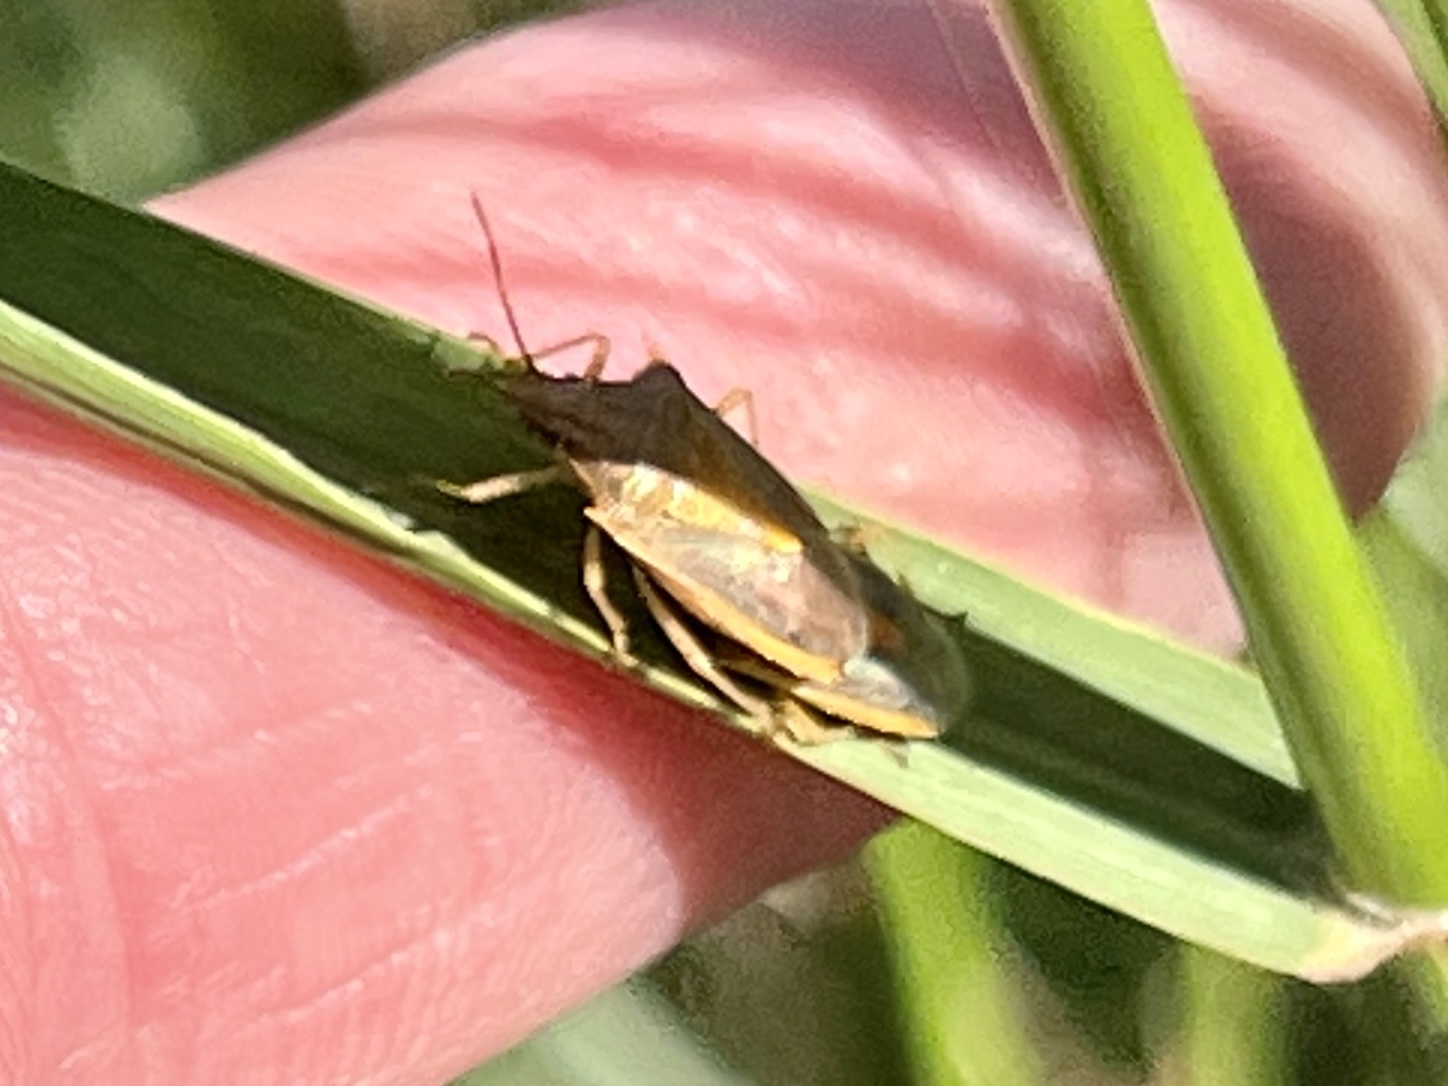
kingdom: Animalia
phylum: Arthropoda
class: Insecta
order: Hemiptera
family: Pentatomidae
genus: Oebalus
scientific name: Oebalus pugnax
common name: Rice stink bug
